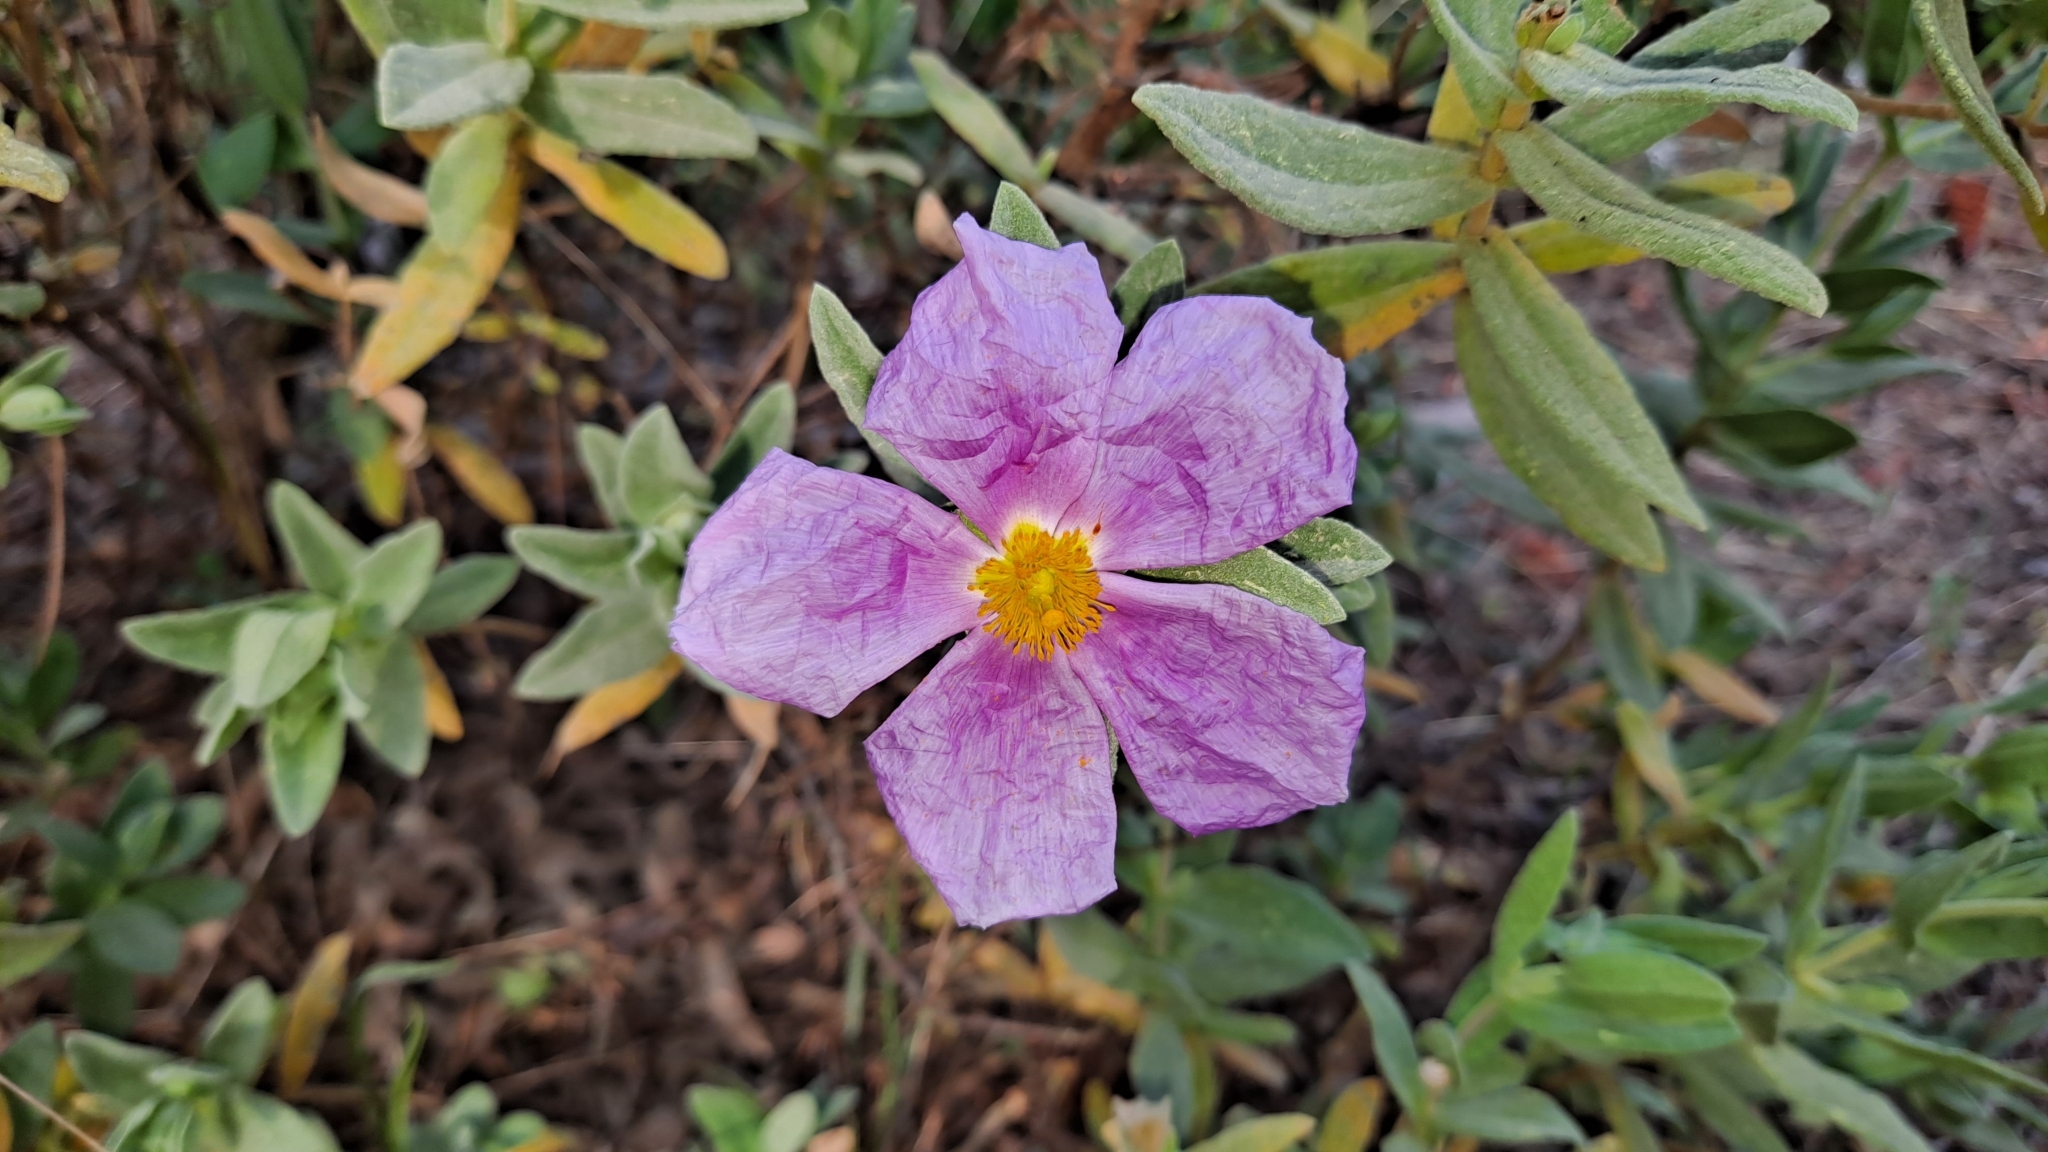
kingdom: Plantae
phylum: Tracheophyta
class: Magnoliopsida
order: Malvales
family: Cistaceae
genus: Cistus
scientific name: Cistus albidus
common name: White-leaf rock-rose
